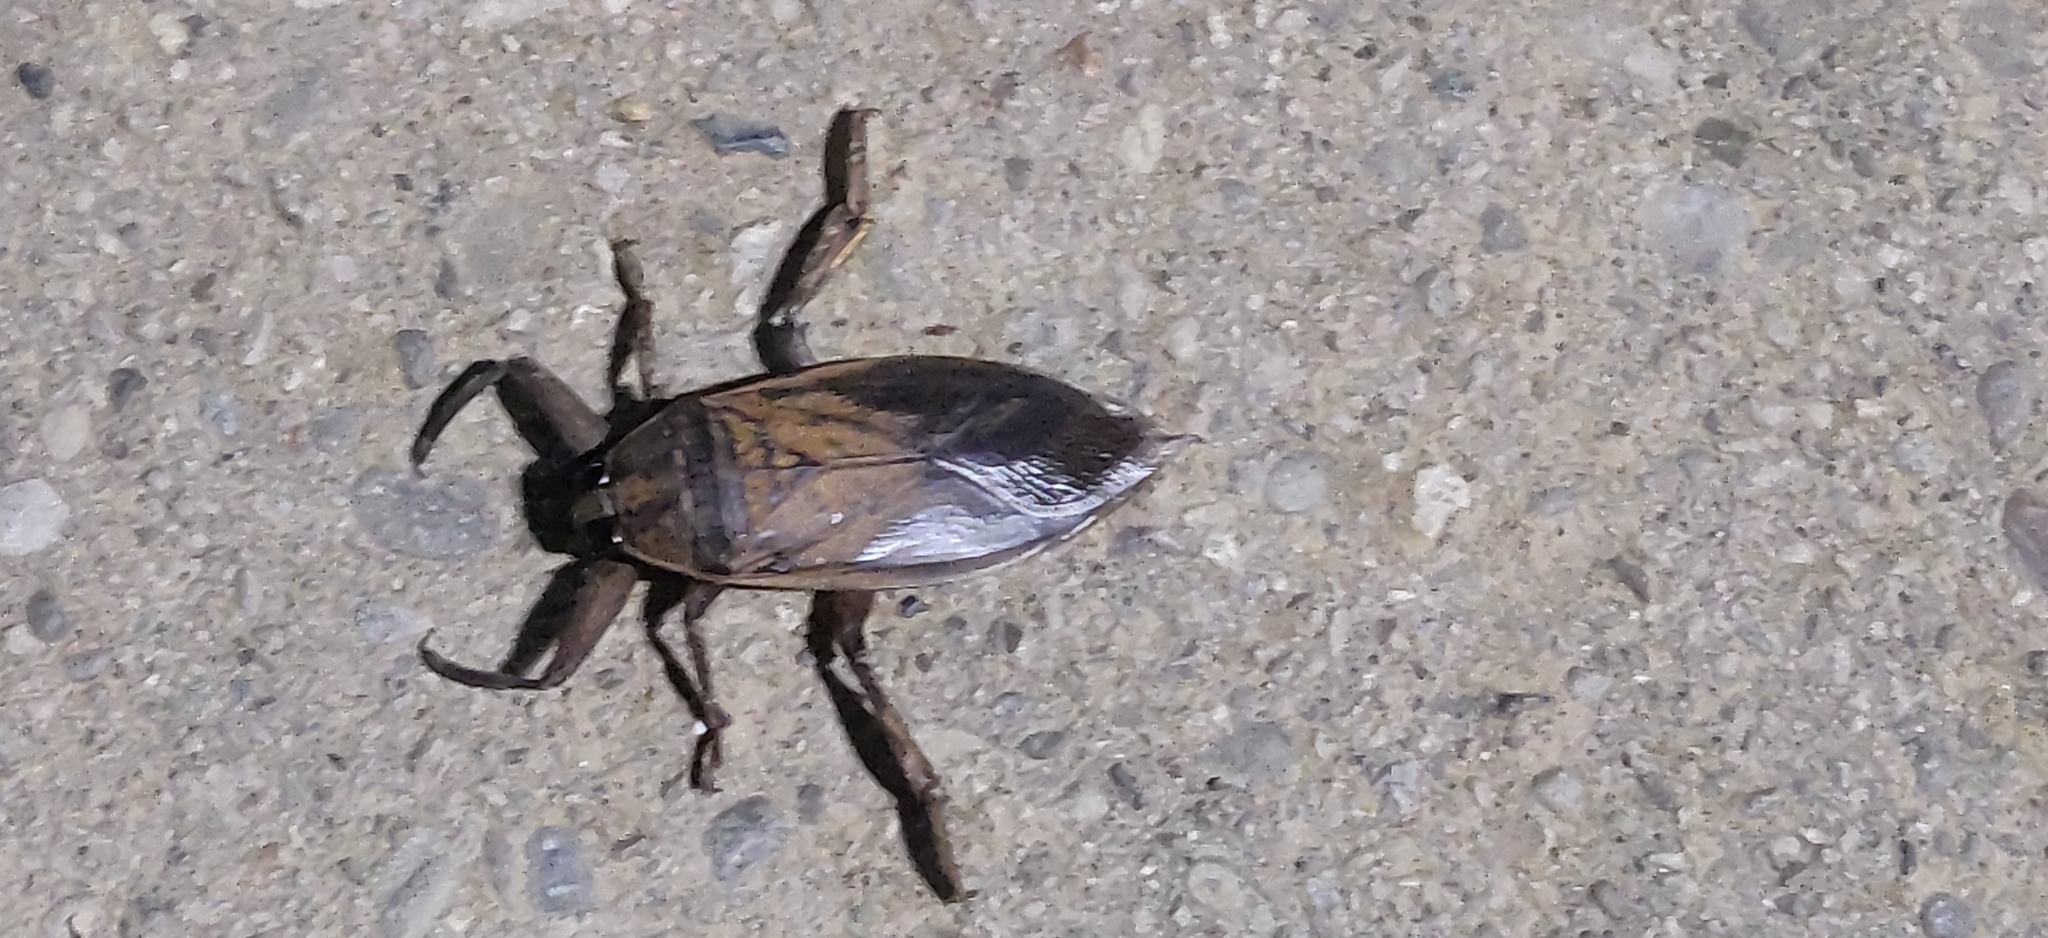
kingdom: Animalia
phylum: Arthropoda
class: Insecta
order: Hemiptera
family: Belostomatidae
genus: Benacus
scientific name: Benacus griseus
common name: Eastern toe-biter
